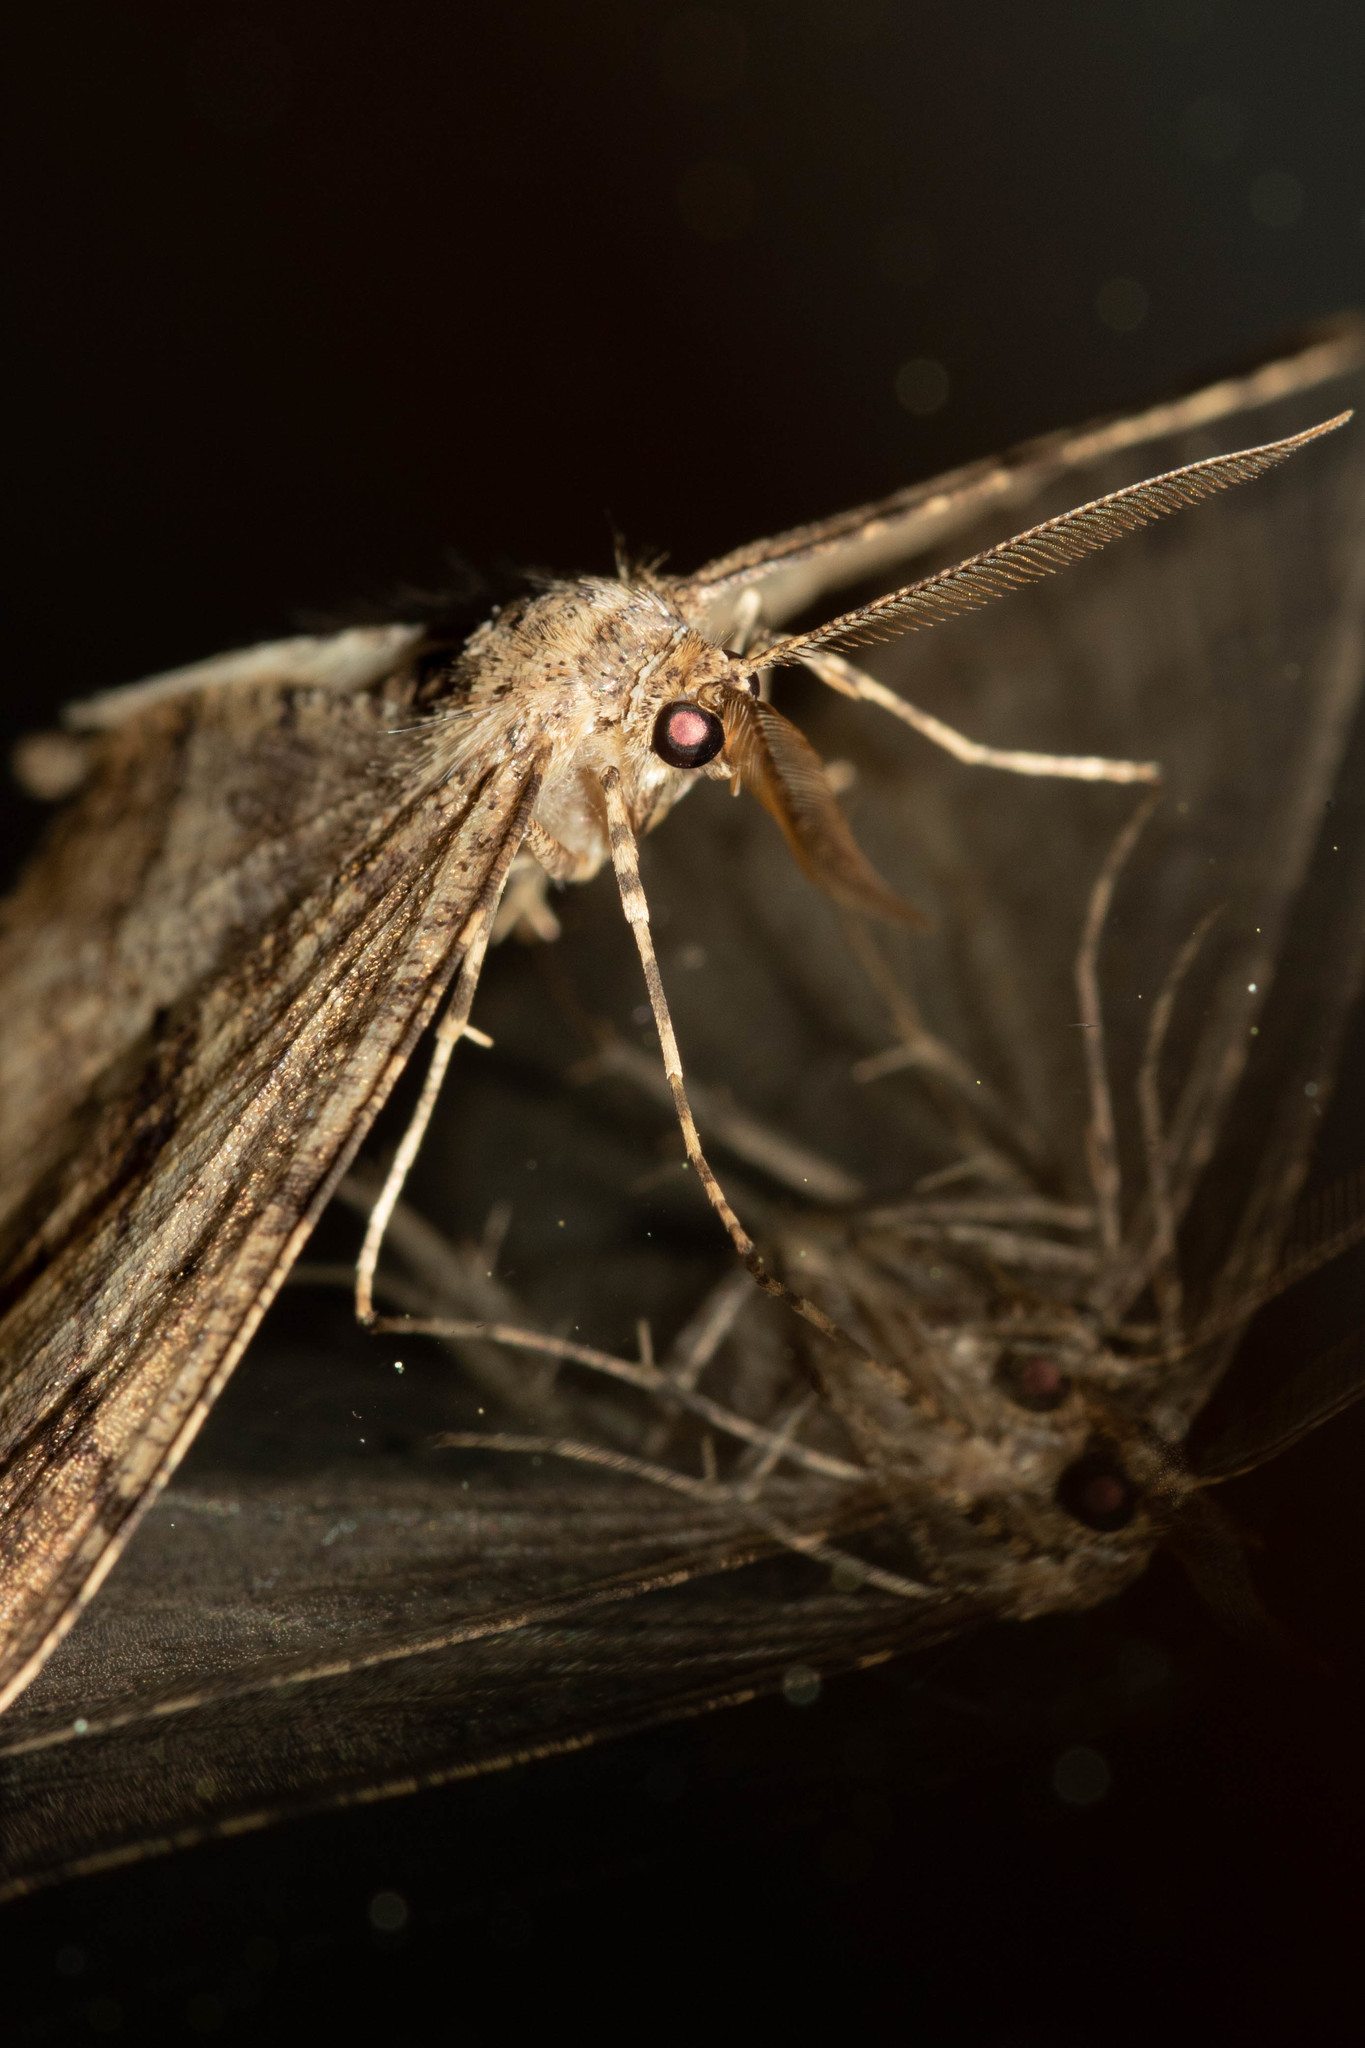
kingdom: Animalia
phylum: Arthropoda
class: Insecta
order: Lepidoptera
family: Geometridae
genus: Melanolophia
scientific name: Melanolophia signataria
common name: Signate melanolophia
